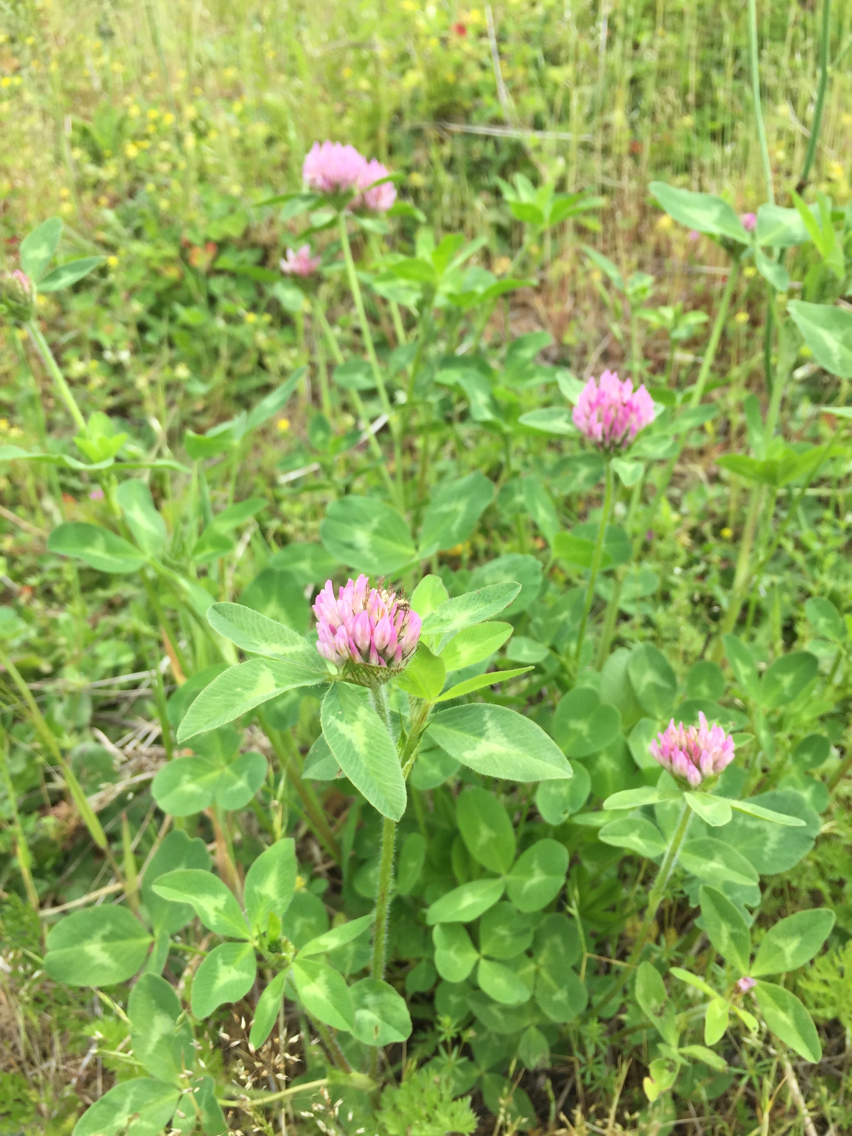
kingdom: Plantae
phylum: Tracheophyta
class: Magnoliopsida
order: Fabales
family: Fabaceae
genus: Trifolium
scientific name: Trifolium pratense
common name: Red clover
